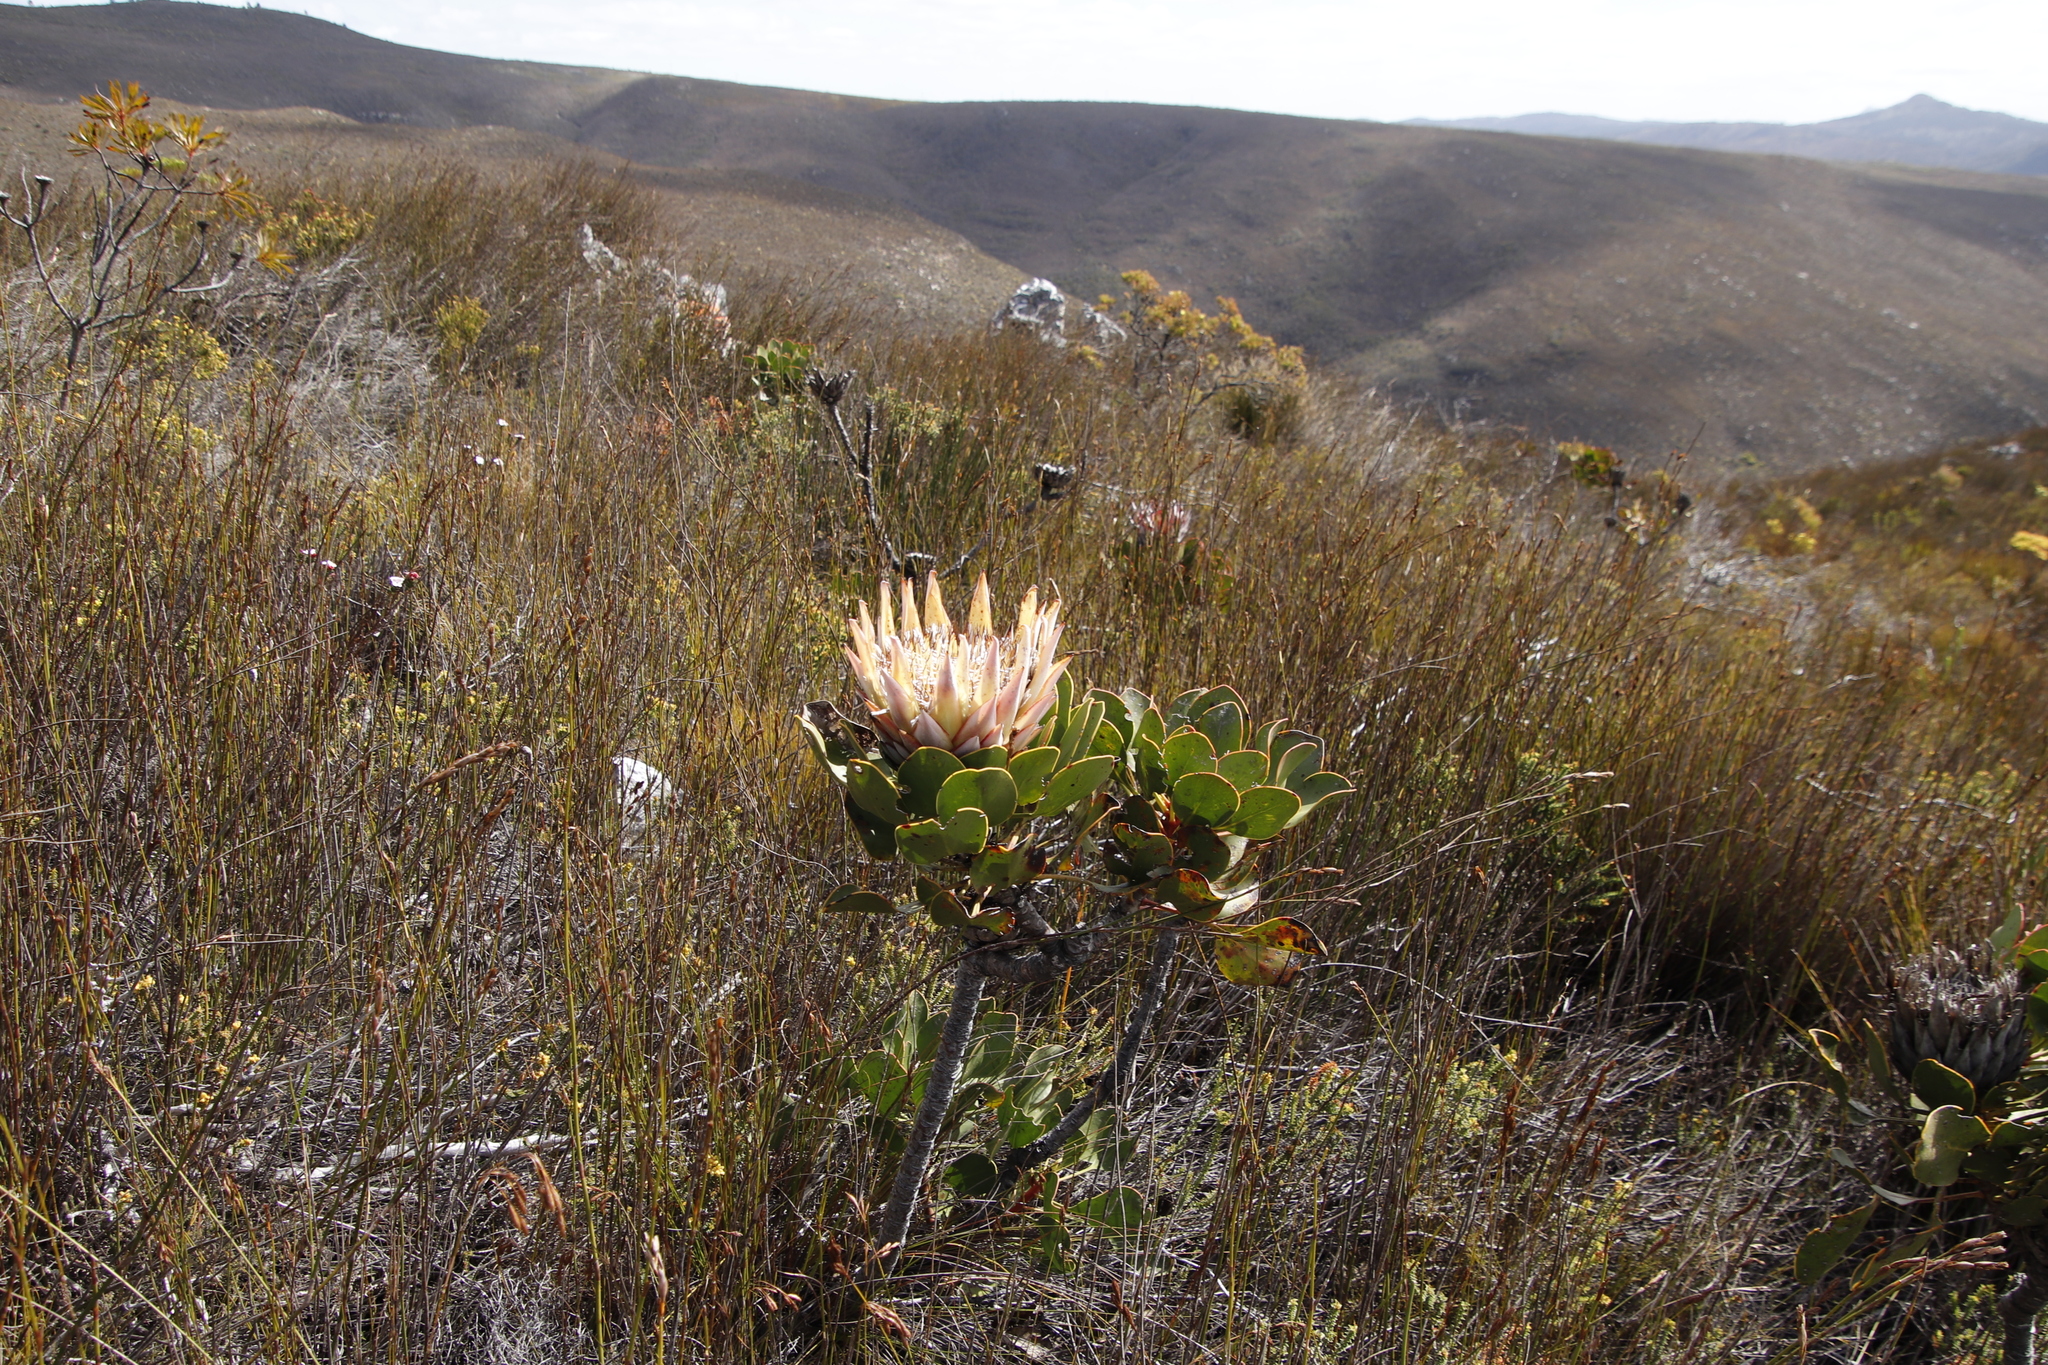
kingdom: Plantae
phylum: Tracheophyta
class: Magnoliopsida
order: Proteales
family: Proteaceae
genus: Protea
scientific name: Protea cynaroides
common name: King protea
